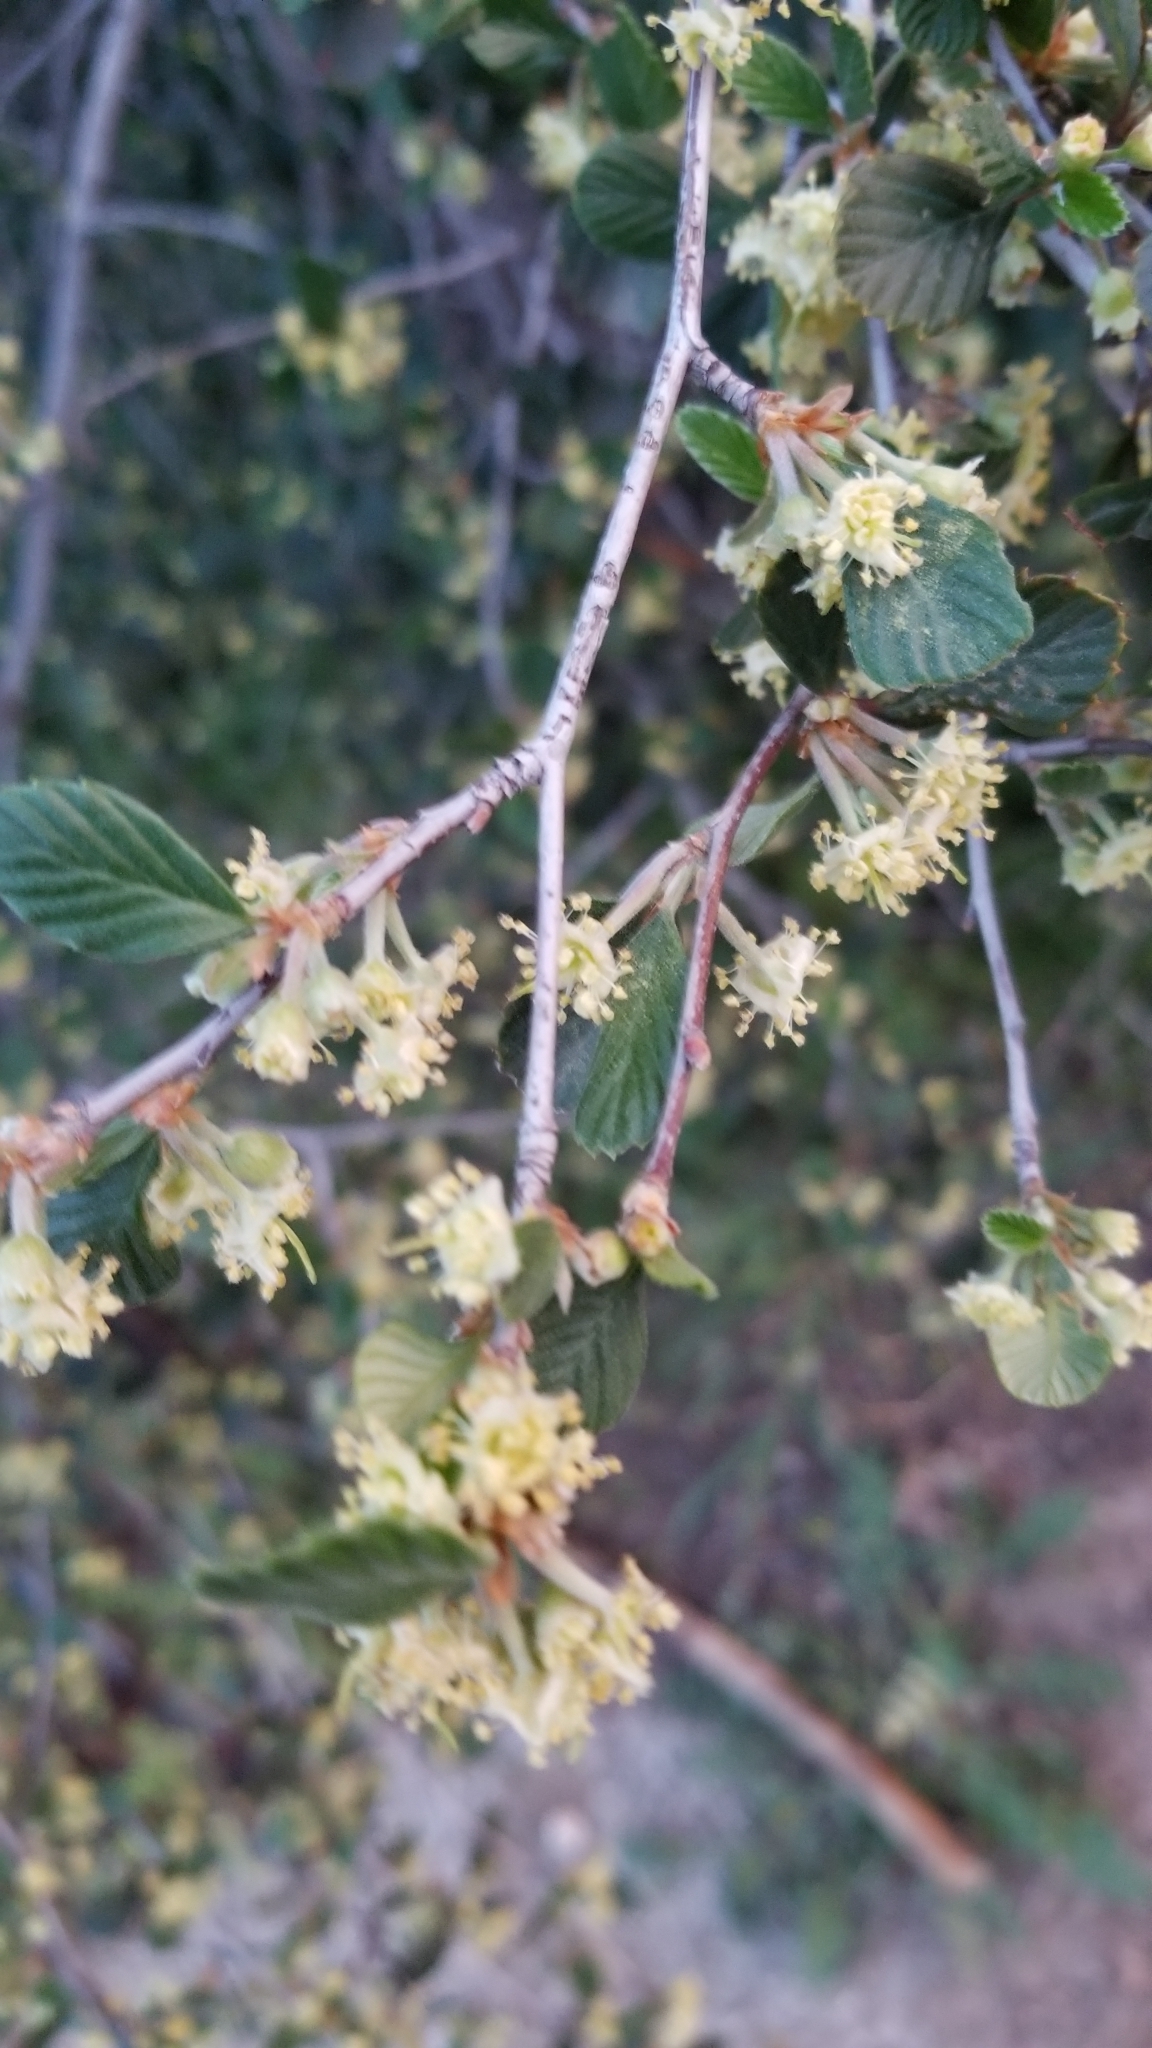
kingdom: Plantae
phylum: Tracheophyta
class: Magnoliopsida
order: Rosales
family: Rosaceae
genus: Cercocarpus
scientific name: Cercocarpus betuloides
